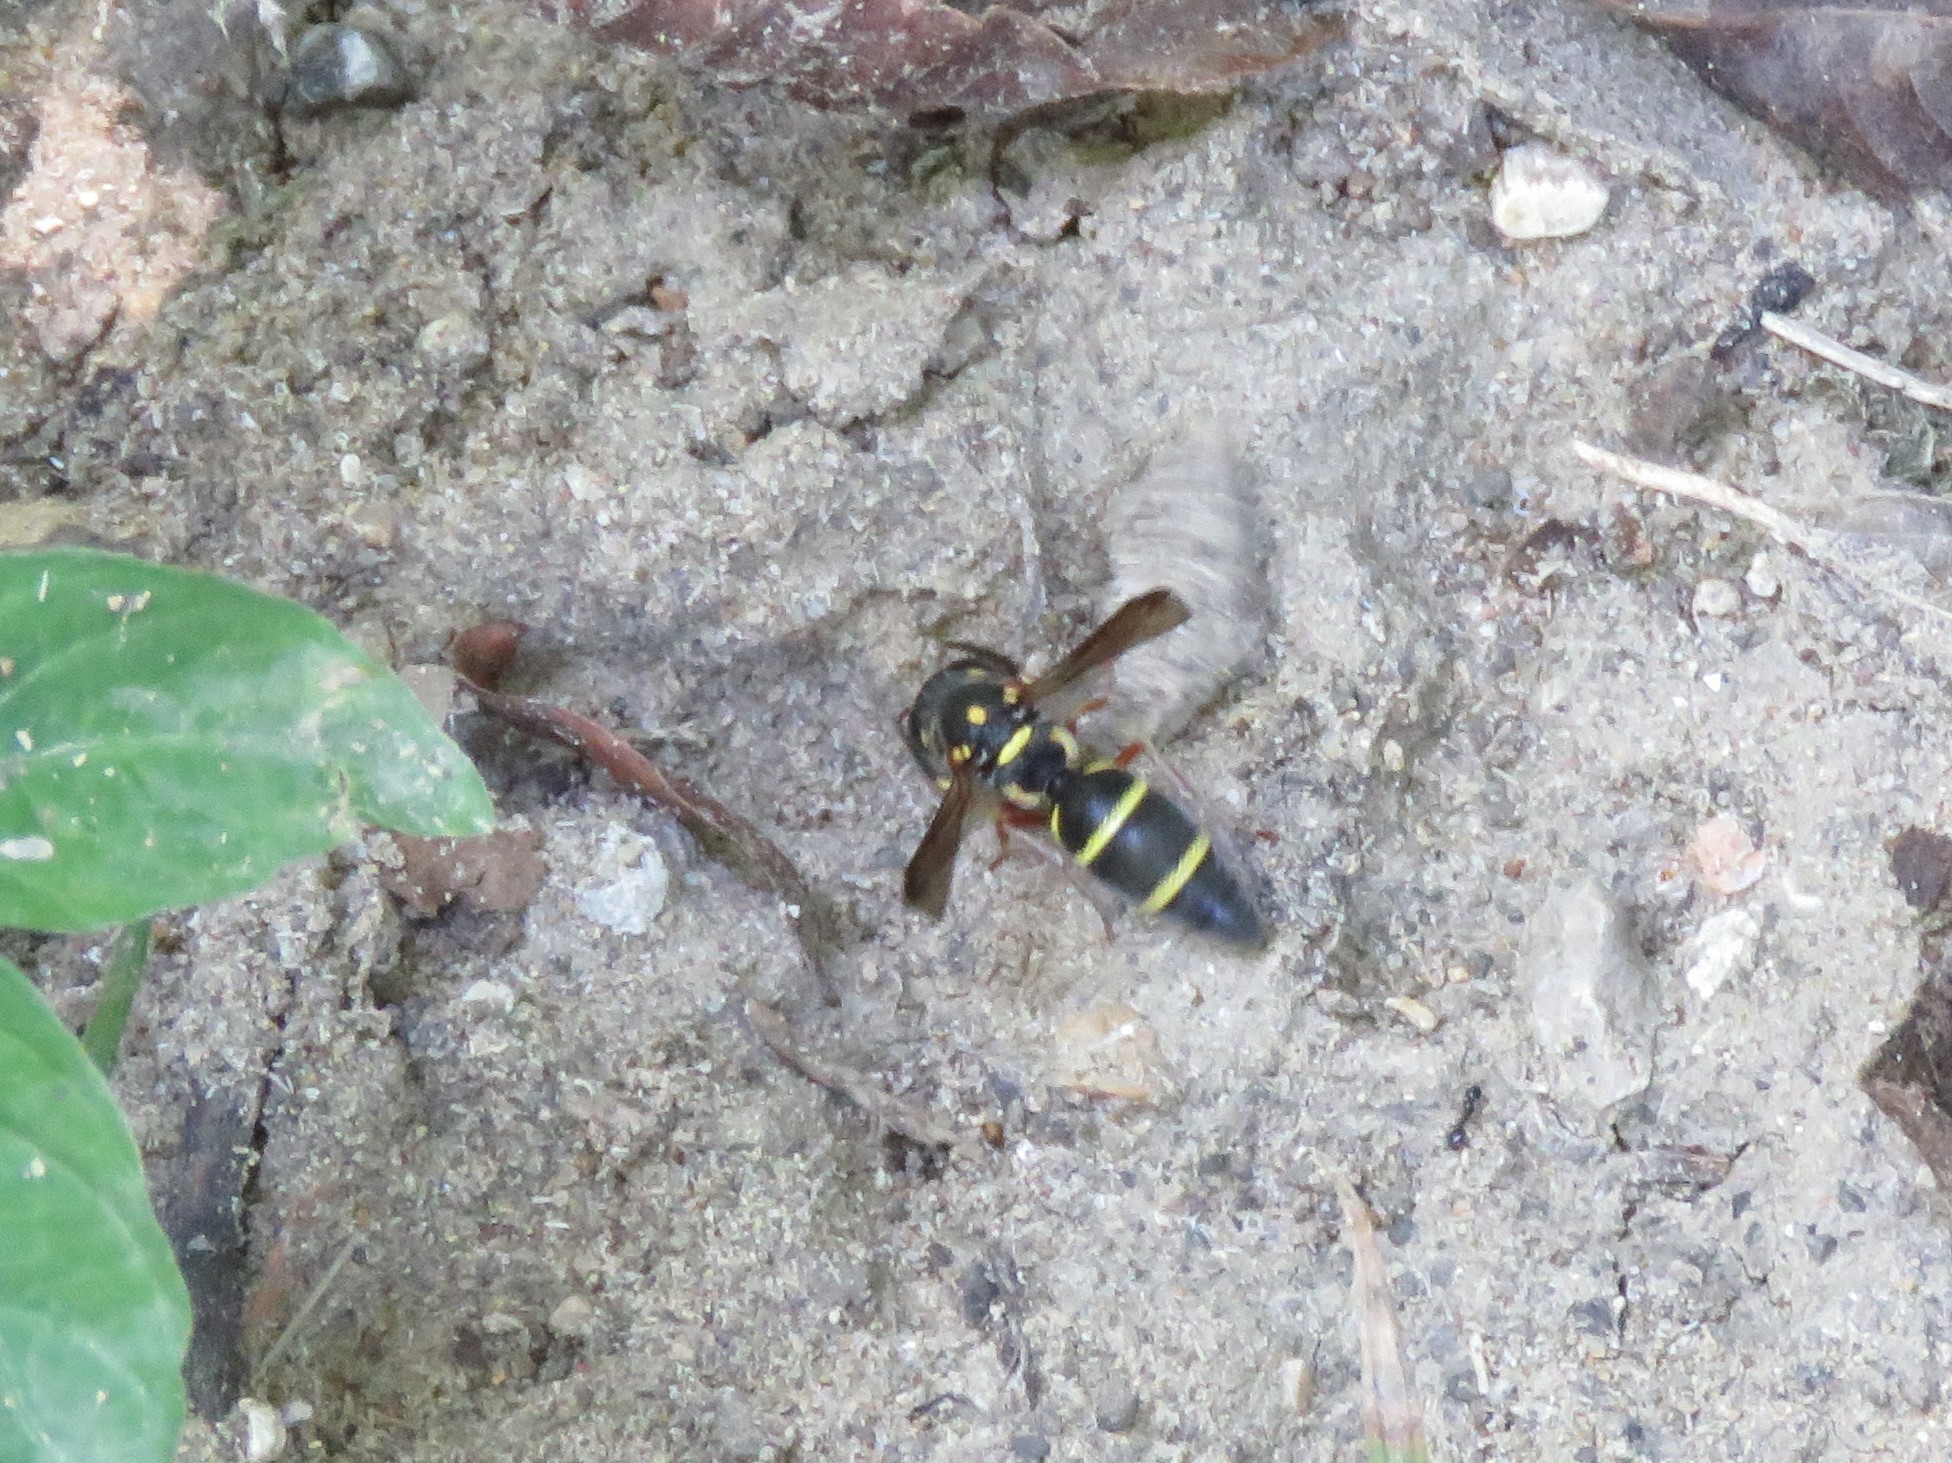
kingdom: Animalia
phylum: Arthropoda
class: Insecta
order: Hymenoptera
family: Eumenidae
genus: Parancistrocerus
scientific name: Parancistrocerus fulvipes
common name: Potter wasp
